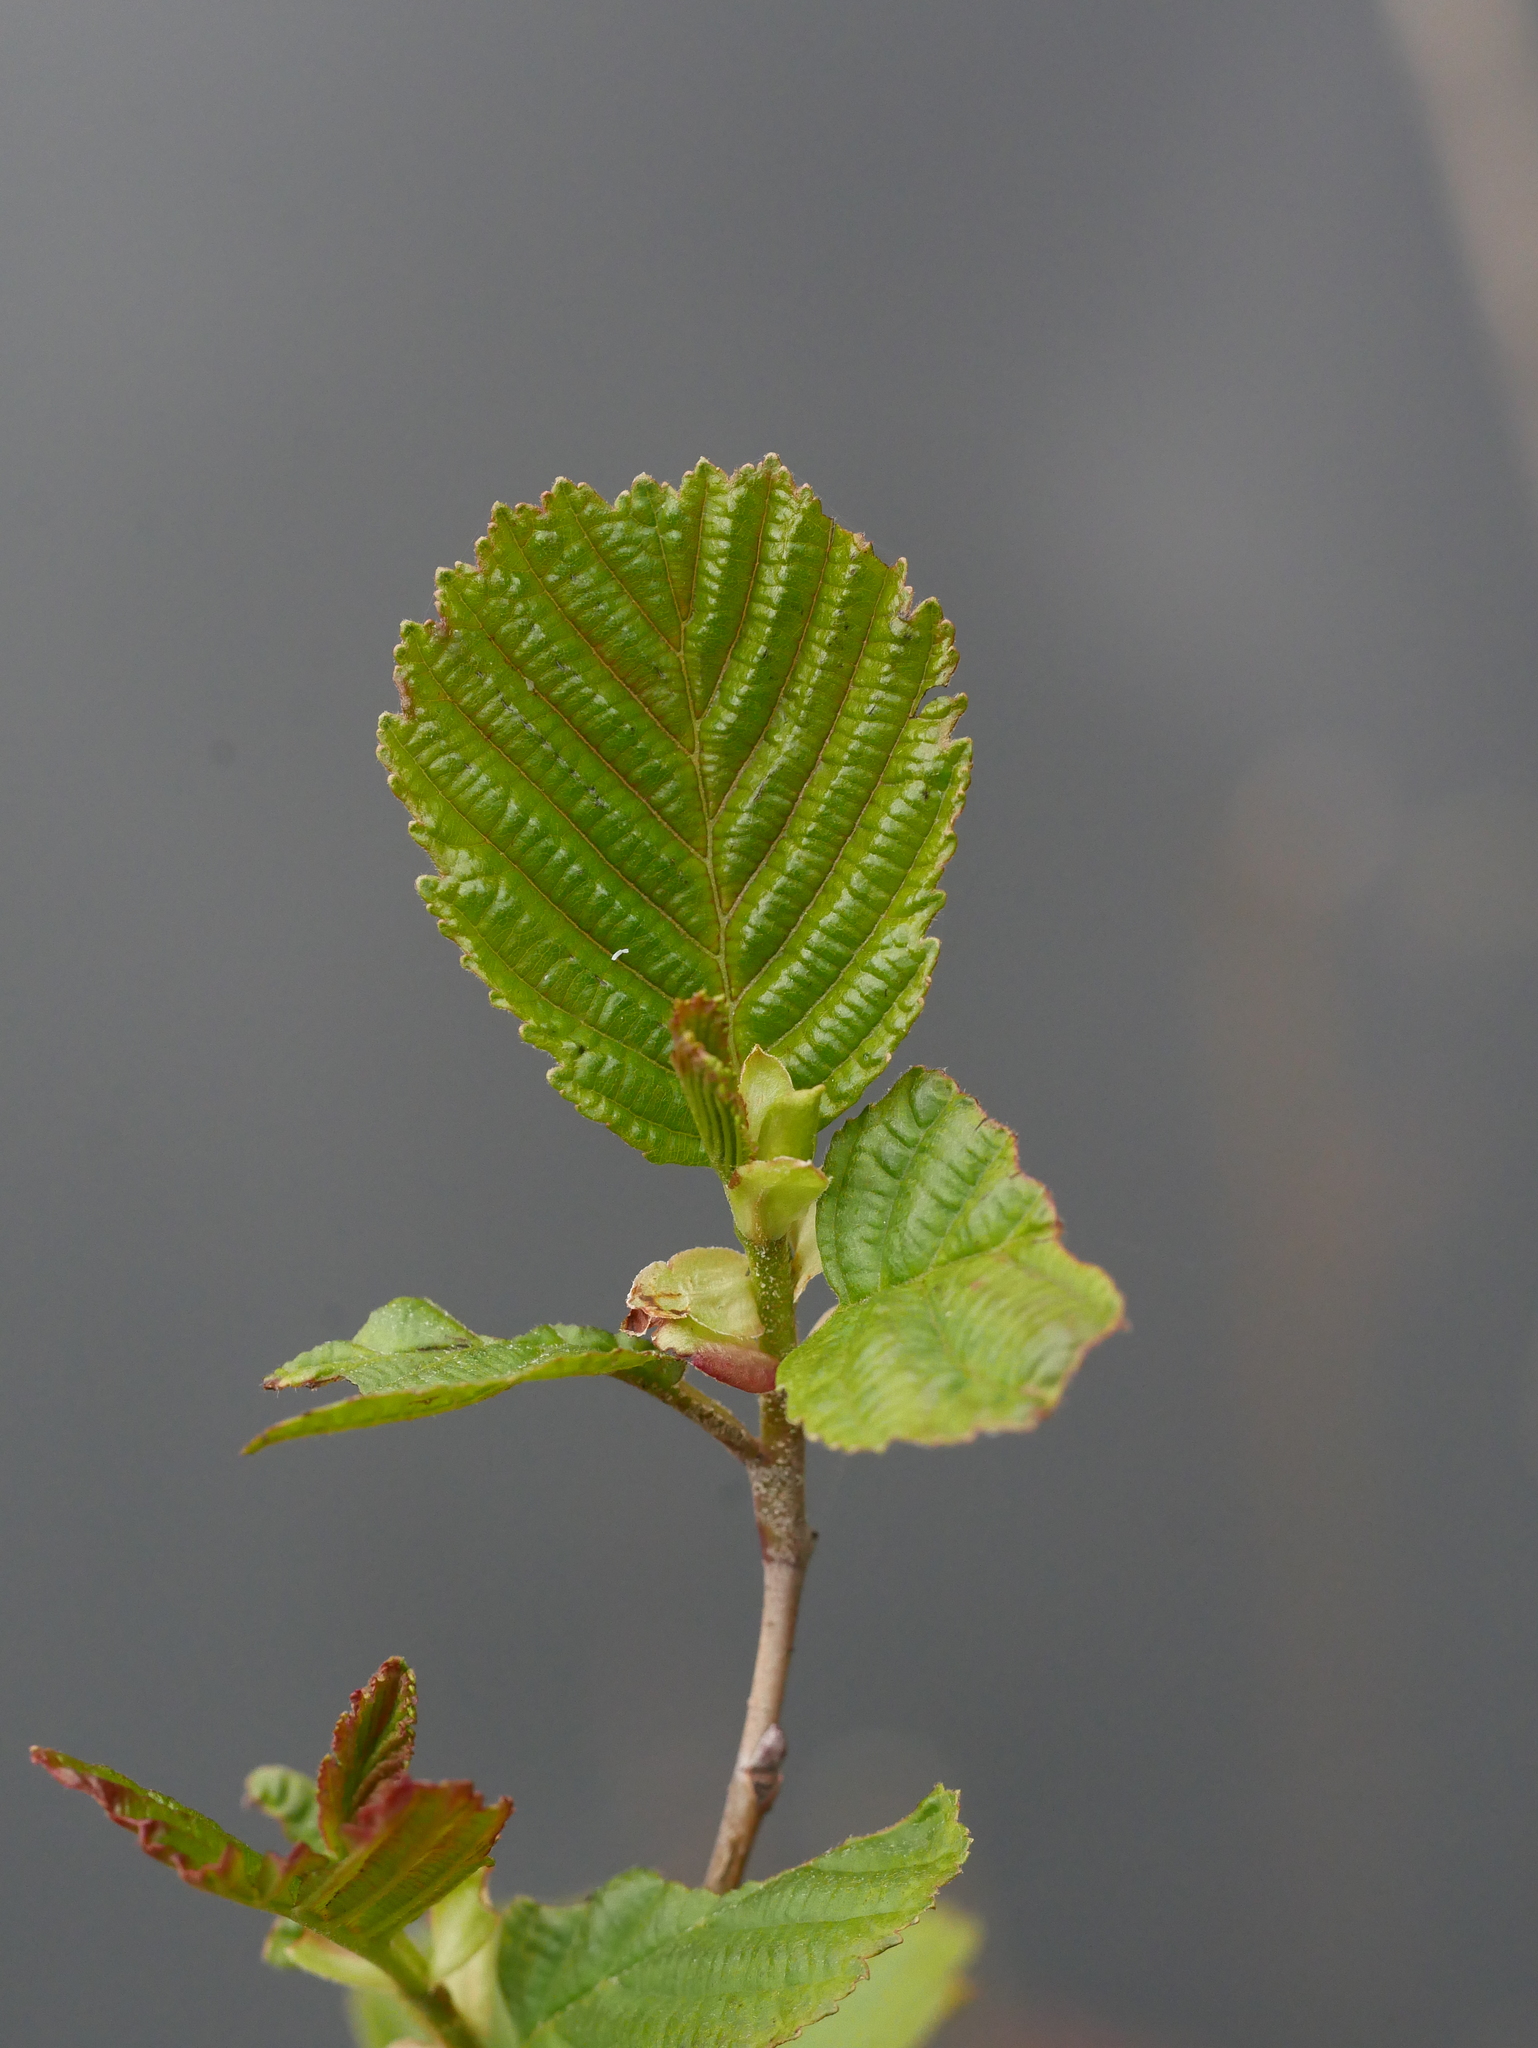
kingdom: Plantae
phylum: Tracheophyta
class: Magnoliopsida
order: Fagales
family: Betulaceae
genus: Alnus
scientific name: Alnus glutinosa
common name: Black alder
